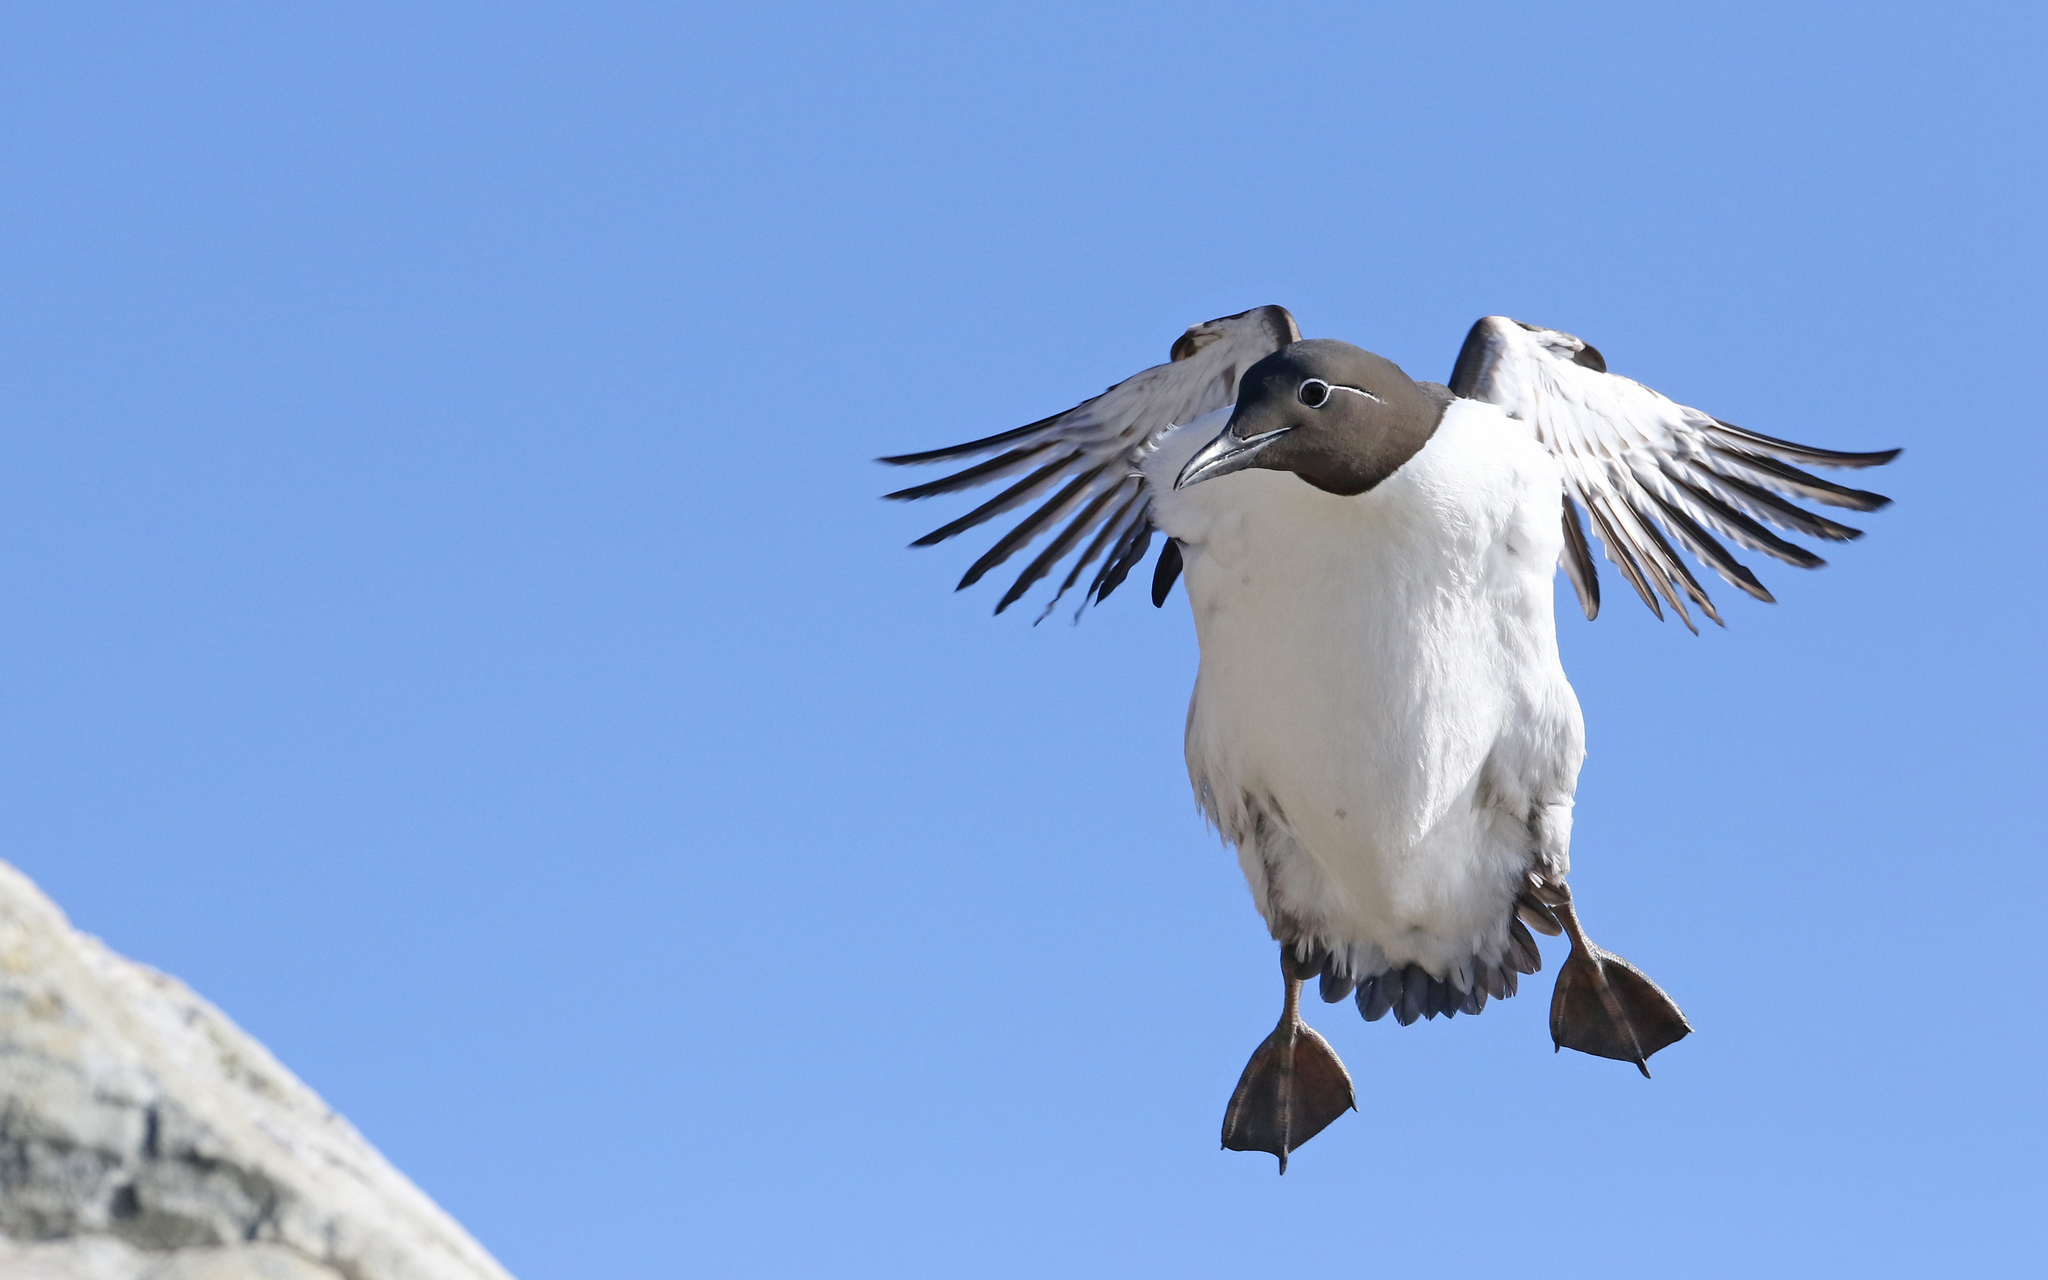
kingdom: Animalia
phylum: Chordata
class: Aves
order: Charadriiformes
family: Alcidae
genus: Uria
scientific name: Uria aalge
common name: Common murre
